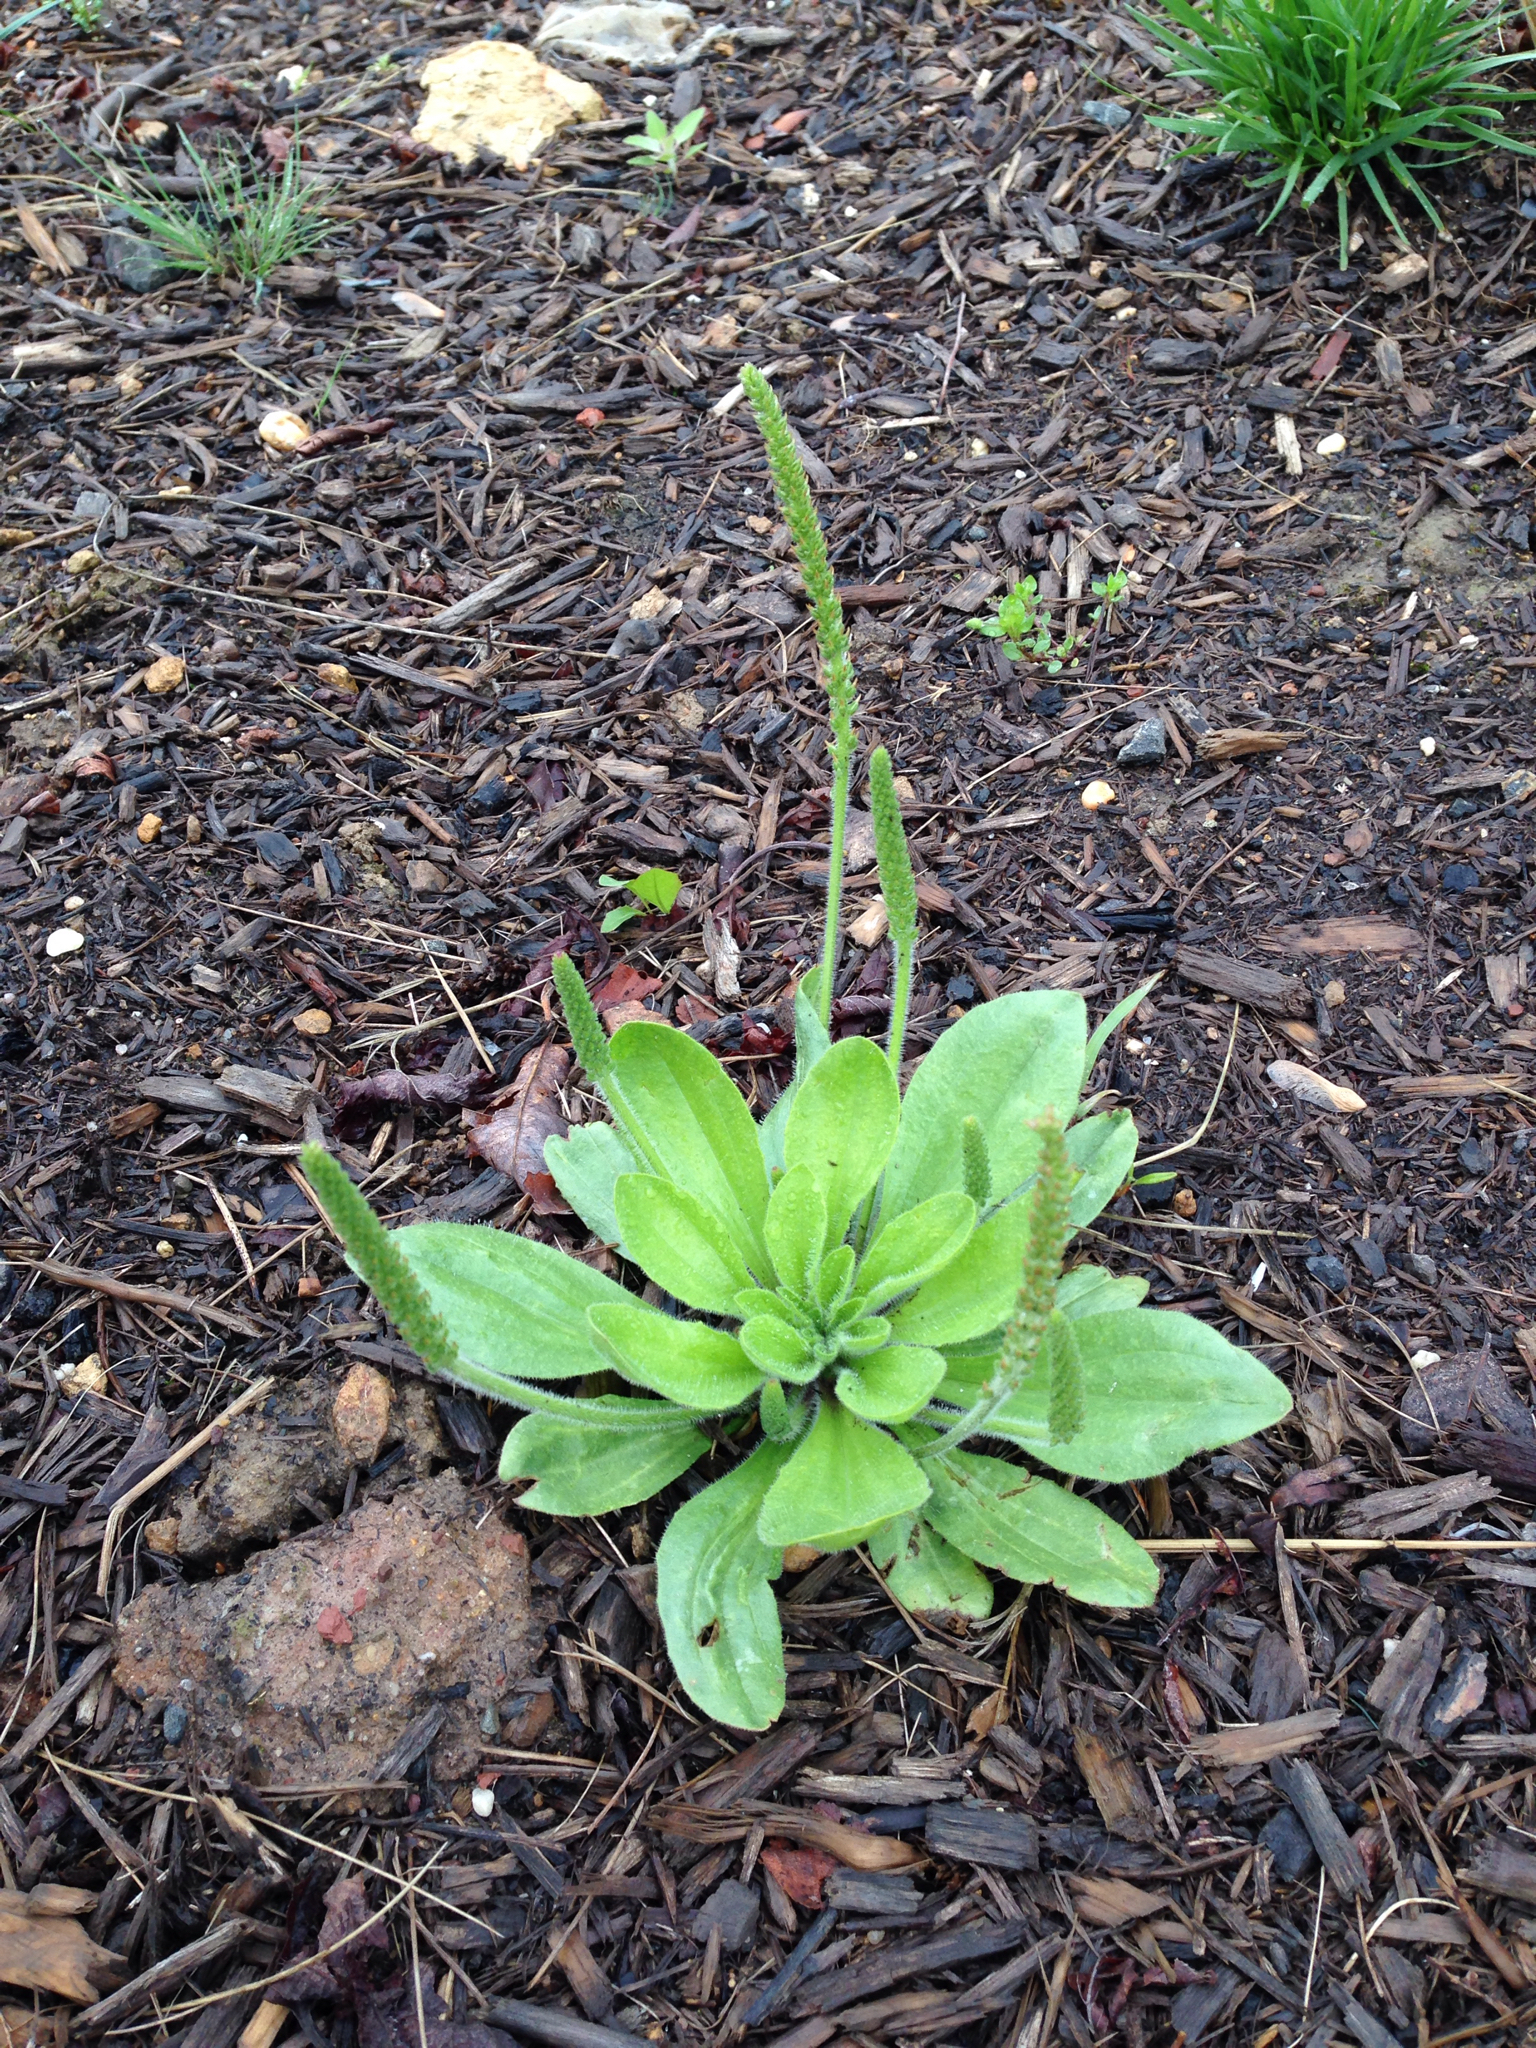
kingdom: Plantae
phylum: Tracheophyta
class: Magnoliopsida
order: Lamiales
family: Plantaginaceae
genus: Plantago
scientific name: Plantago virginica
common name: Hoary plantain
